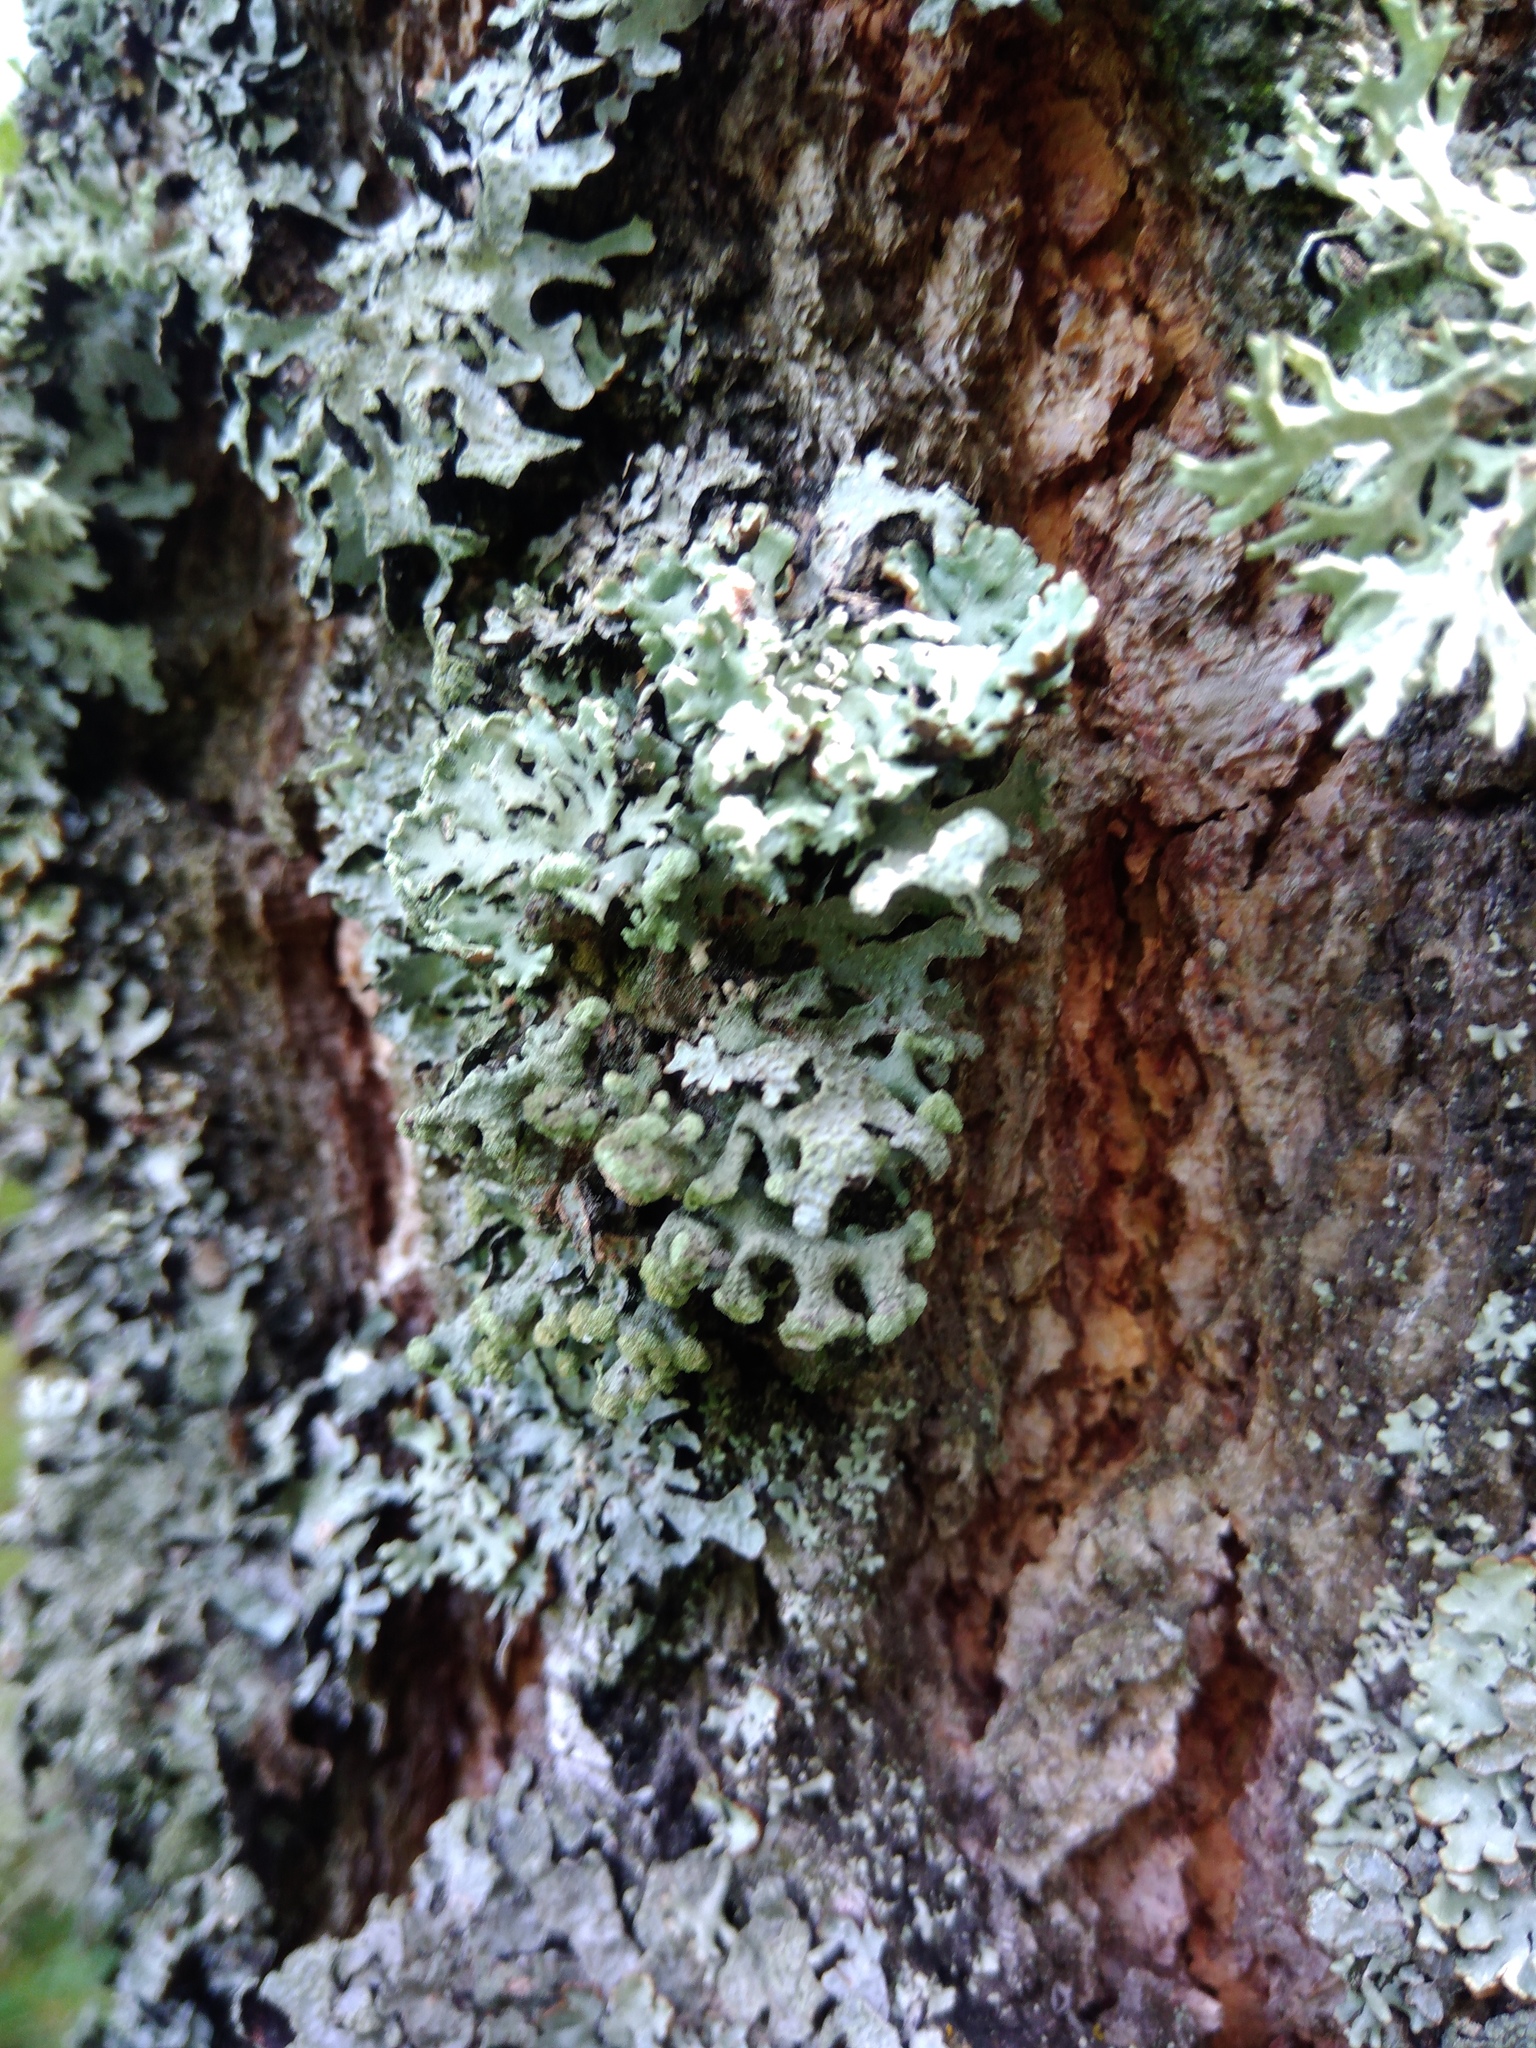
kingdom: Fungi
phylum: Ascomycota
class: Lecanoromycetes
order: Lecanorales
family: Parmeliaceae
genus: Hypogymnia
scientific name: Hypogymnia tubulosa
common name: Powder-headed tube lichen
